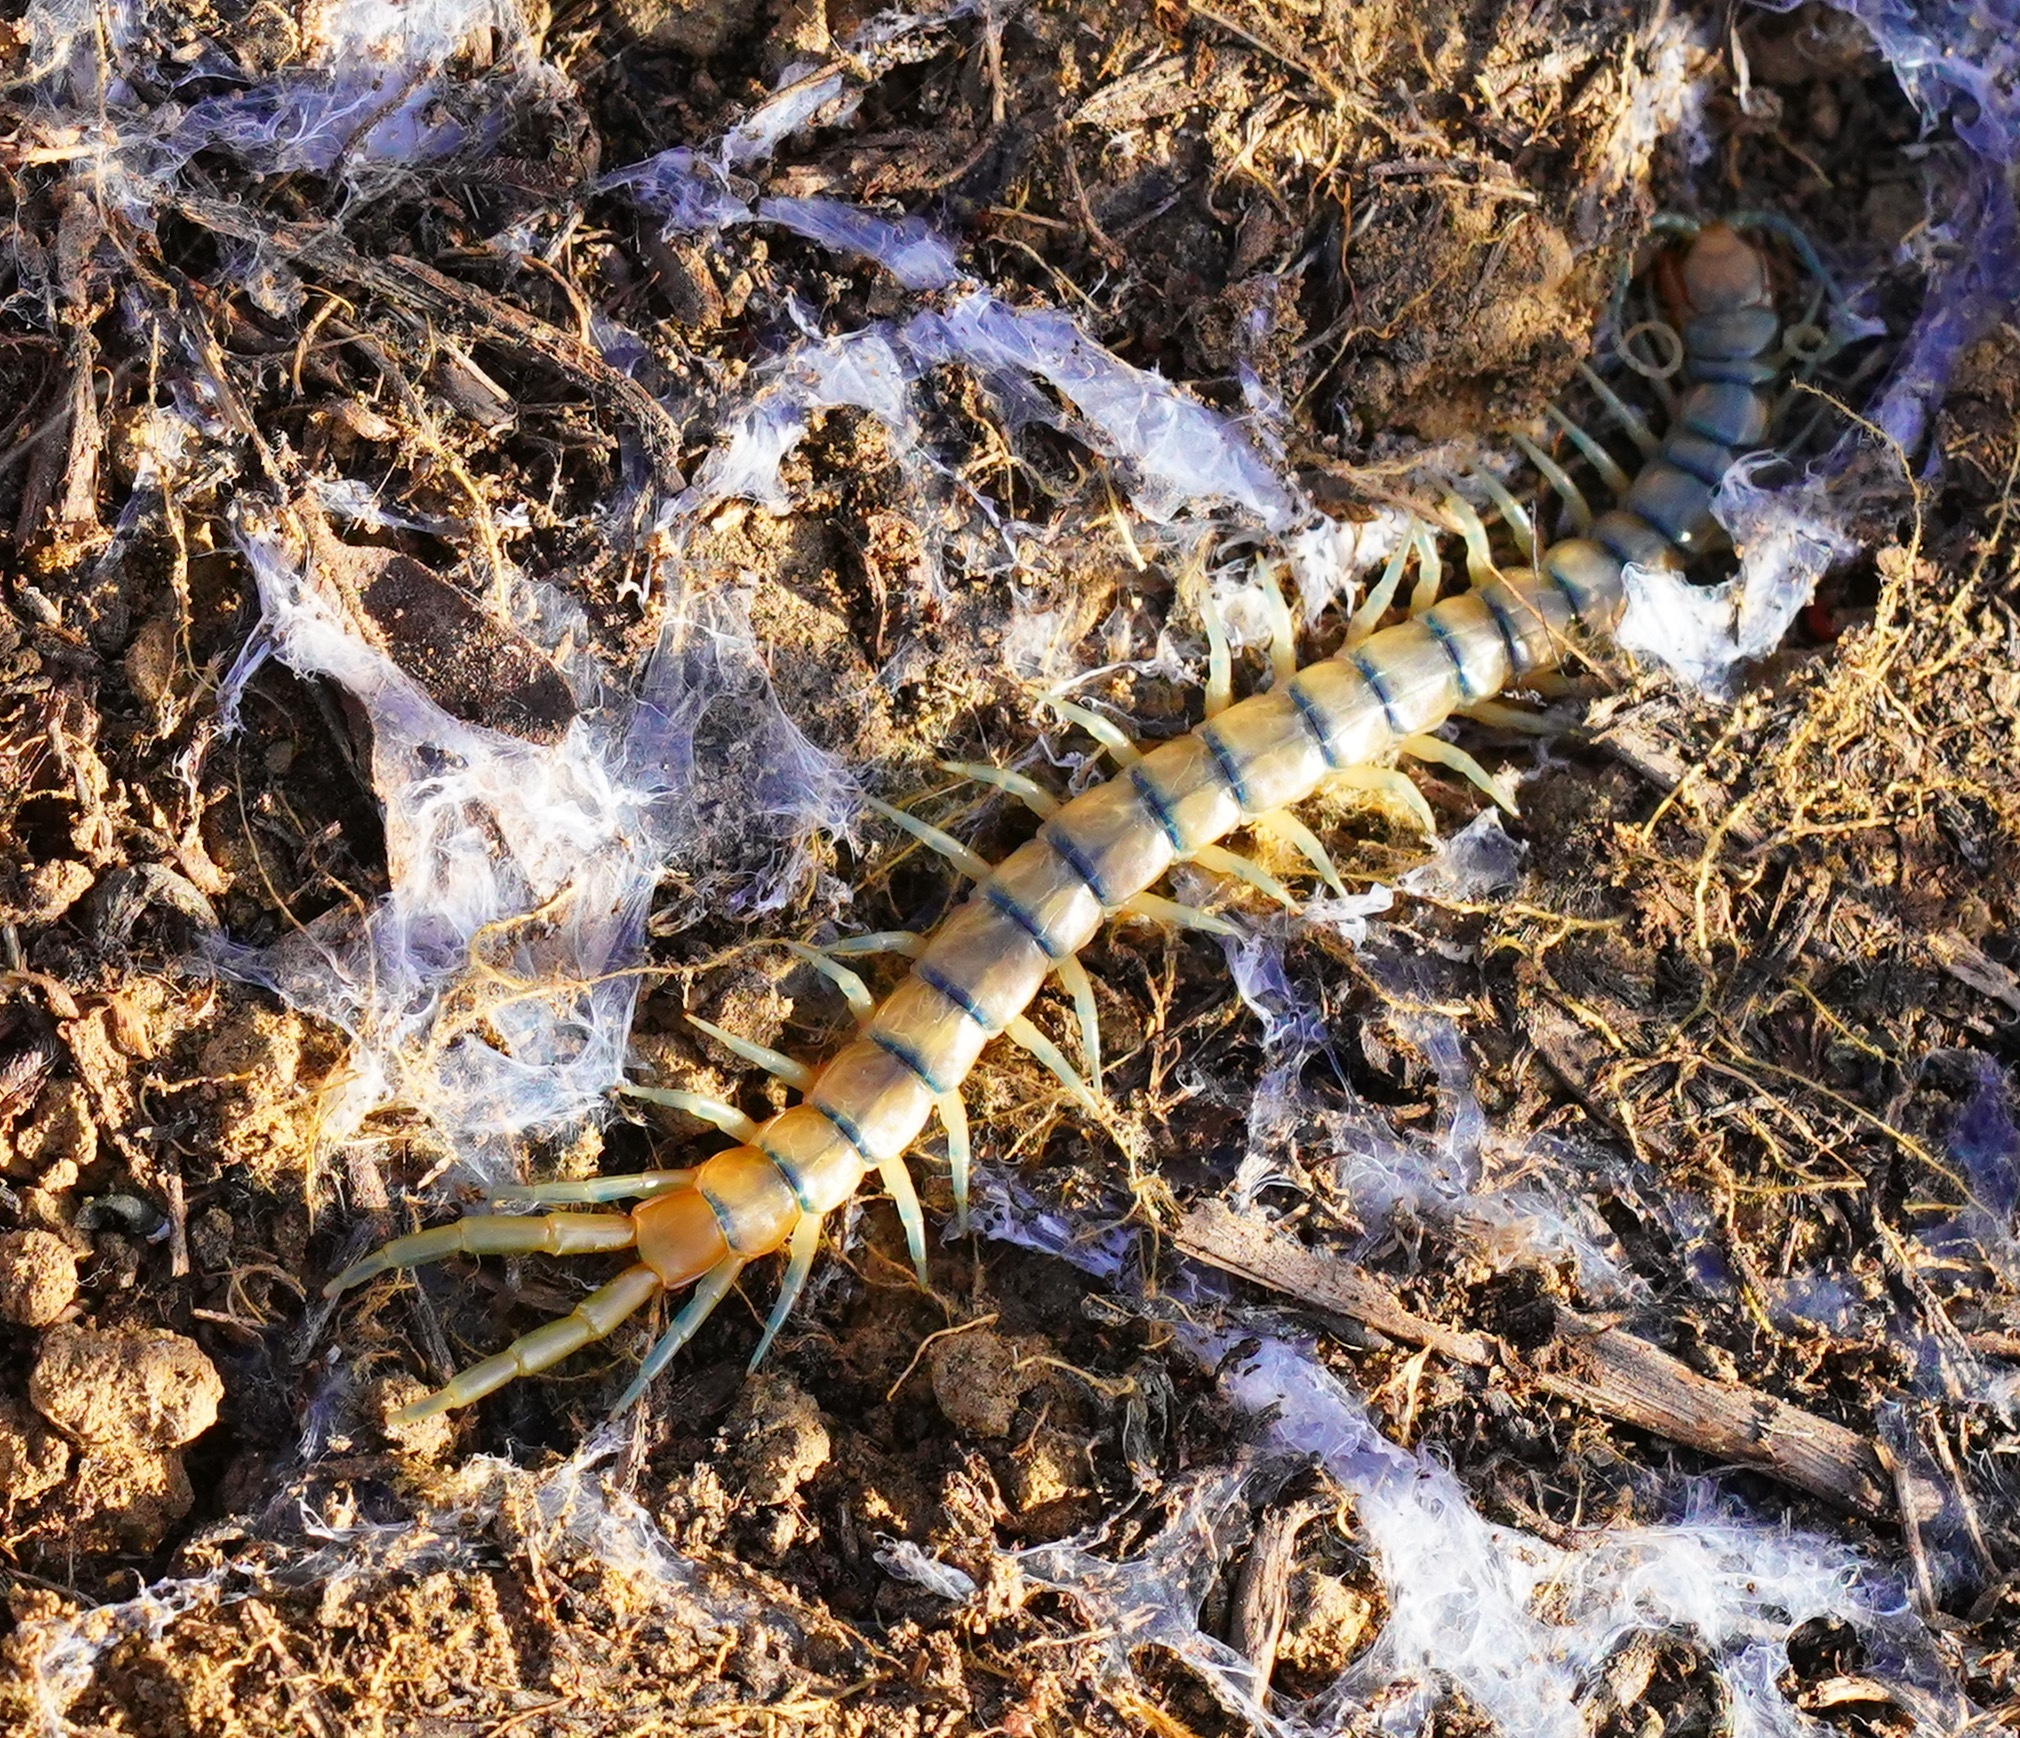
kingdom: Animalia
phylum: Arthropoda
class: Chilopoda
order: Scolopendromorpha
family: Scolopendridae
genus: Scolopendra
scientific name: Scolopendra polymorpha
